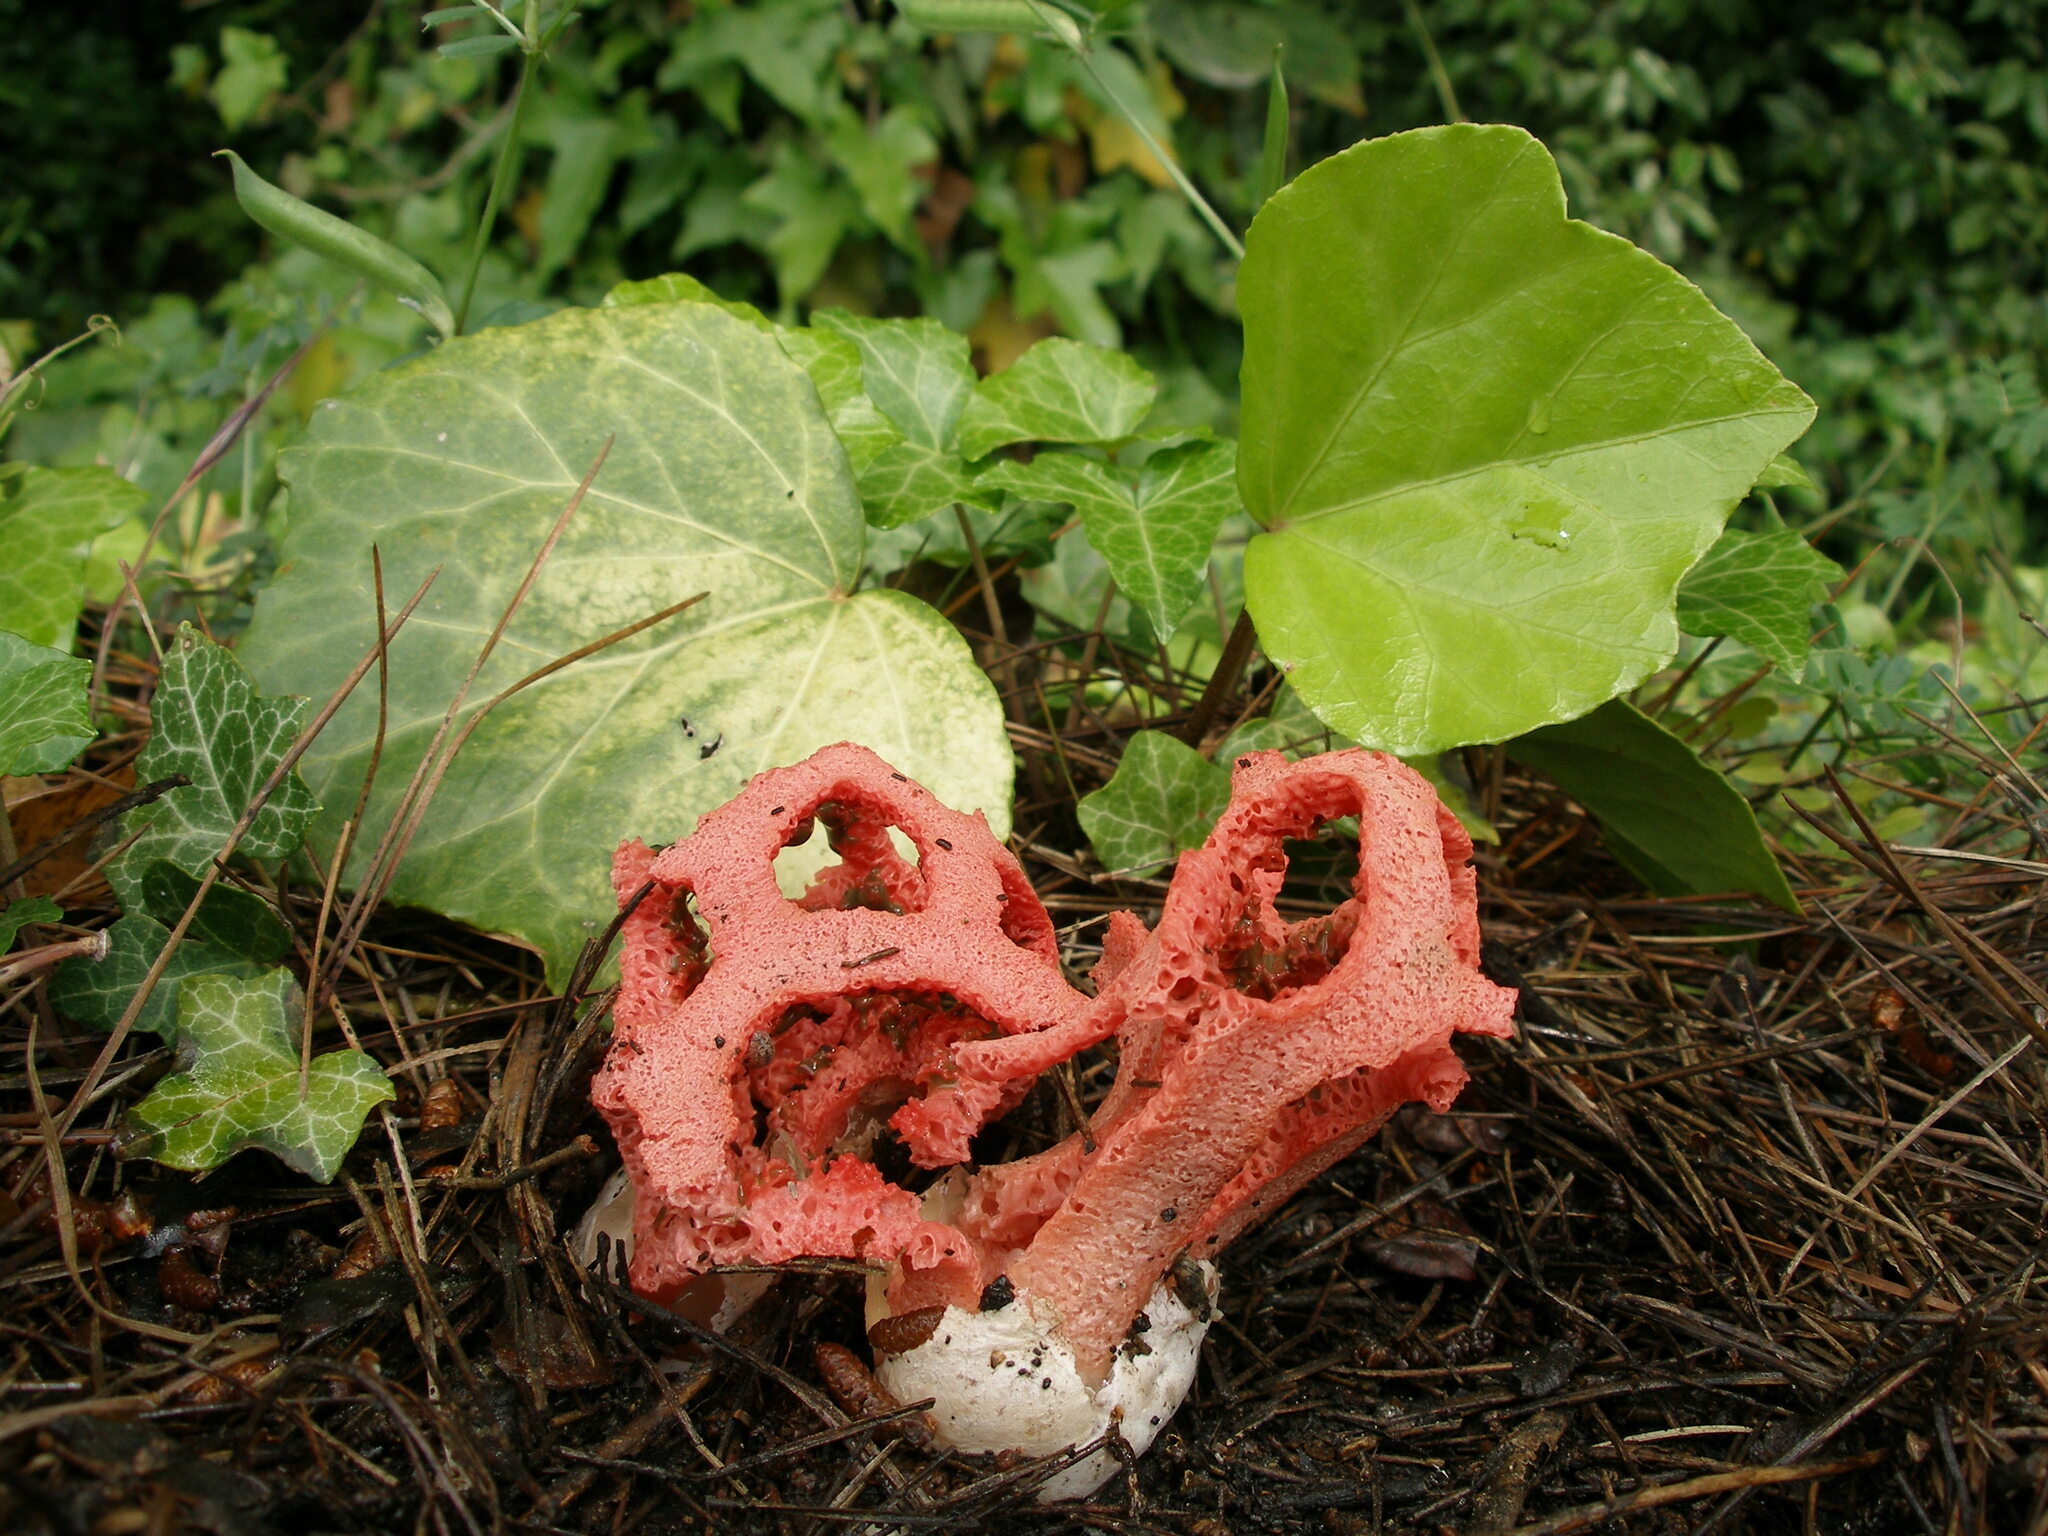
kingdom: Fungi
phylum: Basidiomycota
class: Agaricomycetes
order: Phallales
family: Phallaceae
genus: Clathrus
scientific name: Clathrus ruber
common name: Red cage
